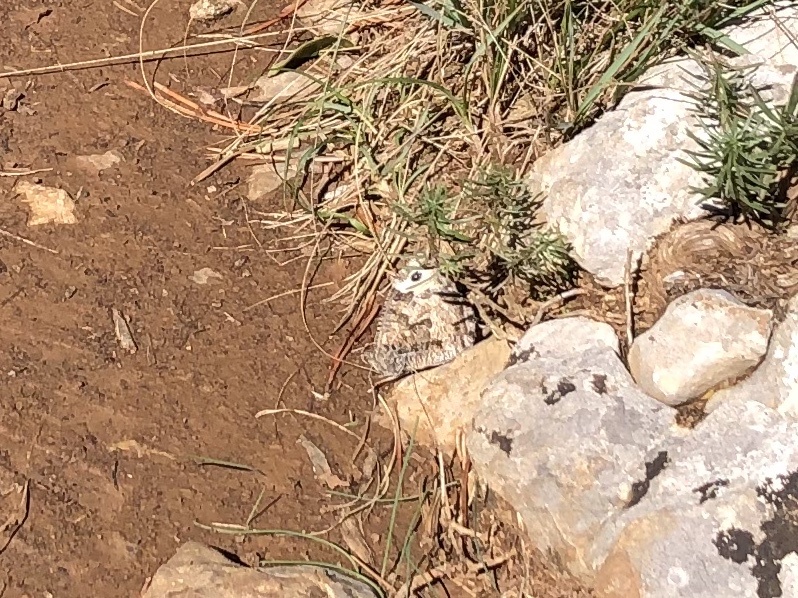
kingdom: Animalia
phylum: Arthropoda
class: Insecta
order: Lepidoptera
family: Nymphalidae
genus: Hipparchia
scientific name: Hipparchia semele
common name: Grayling
